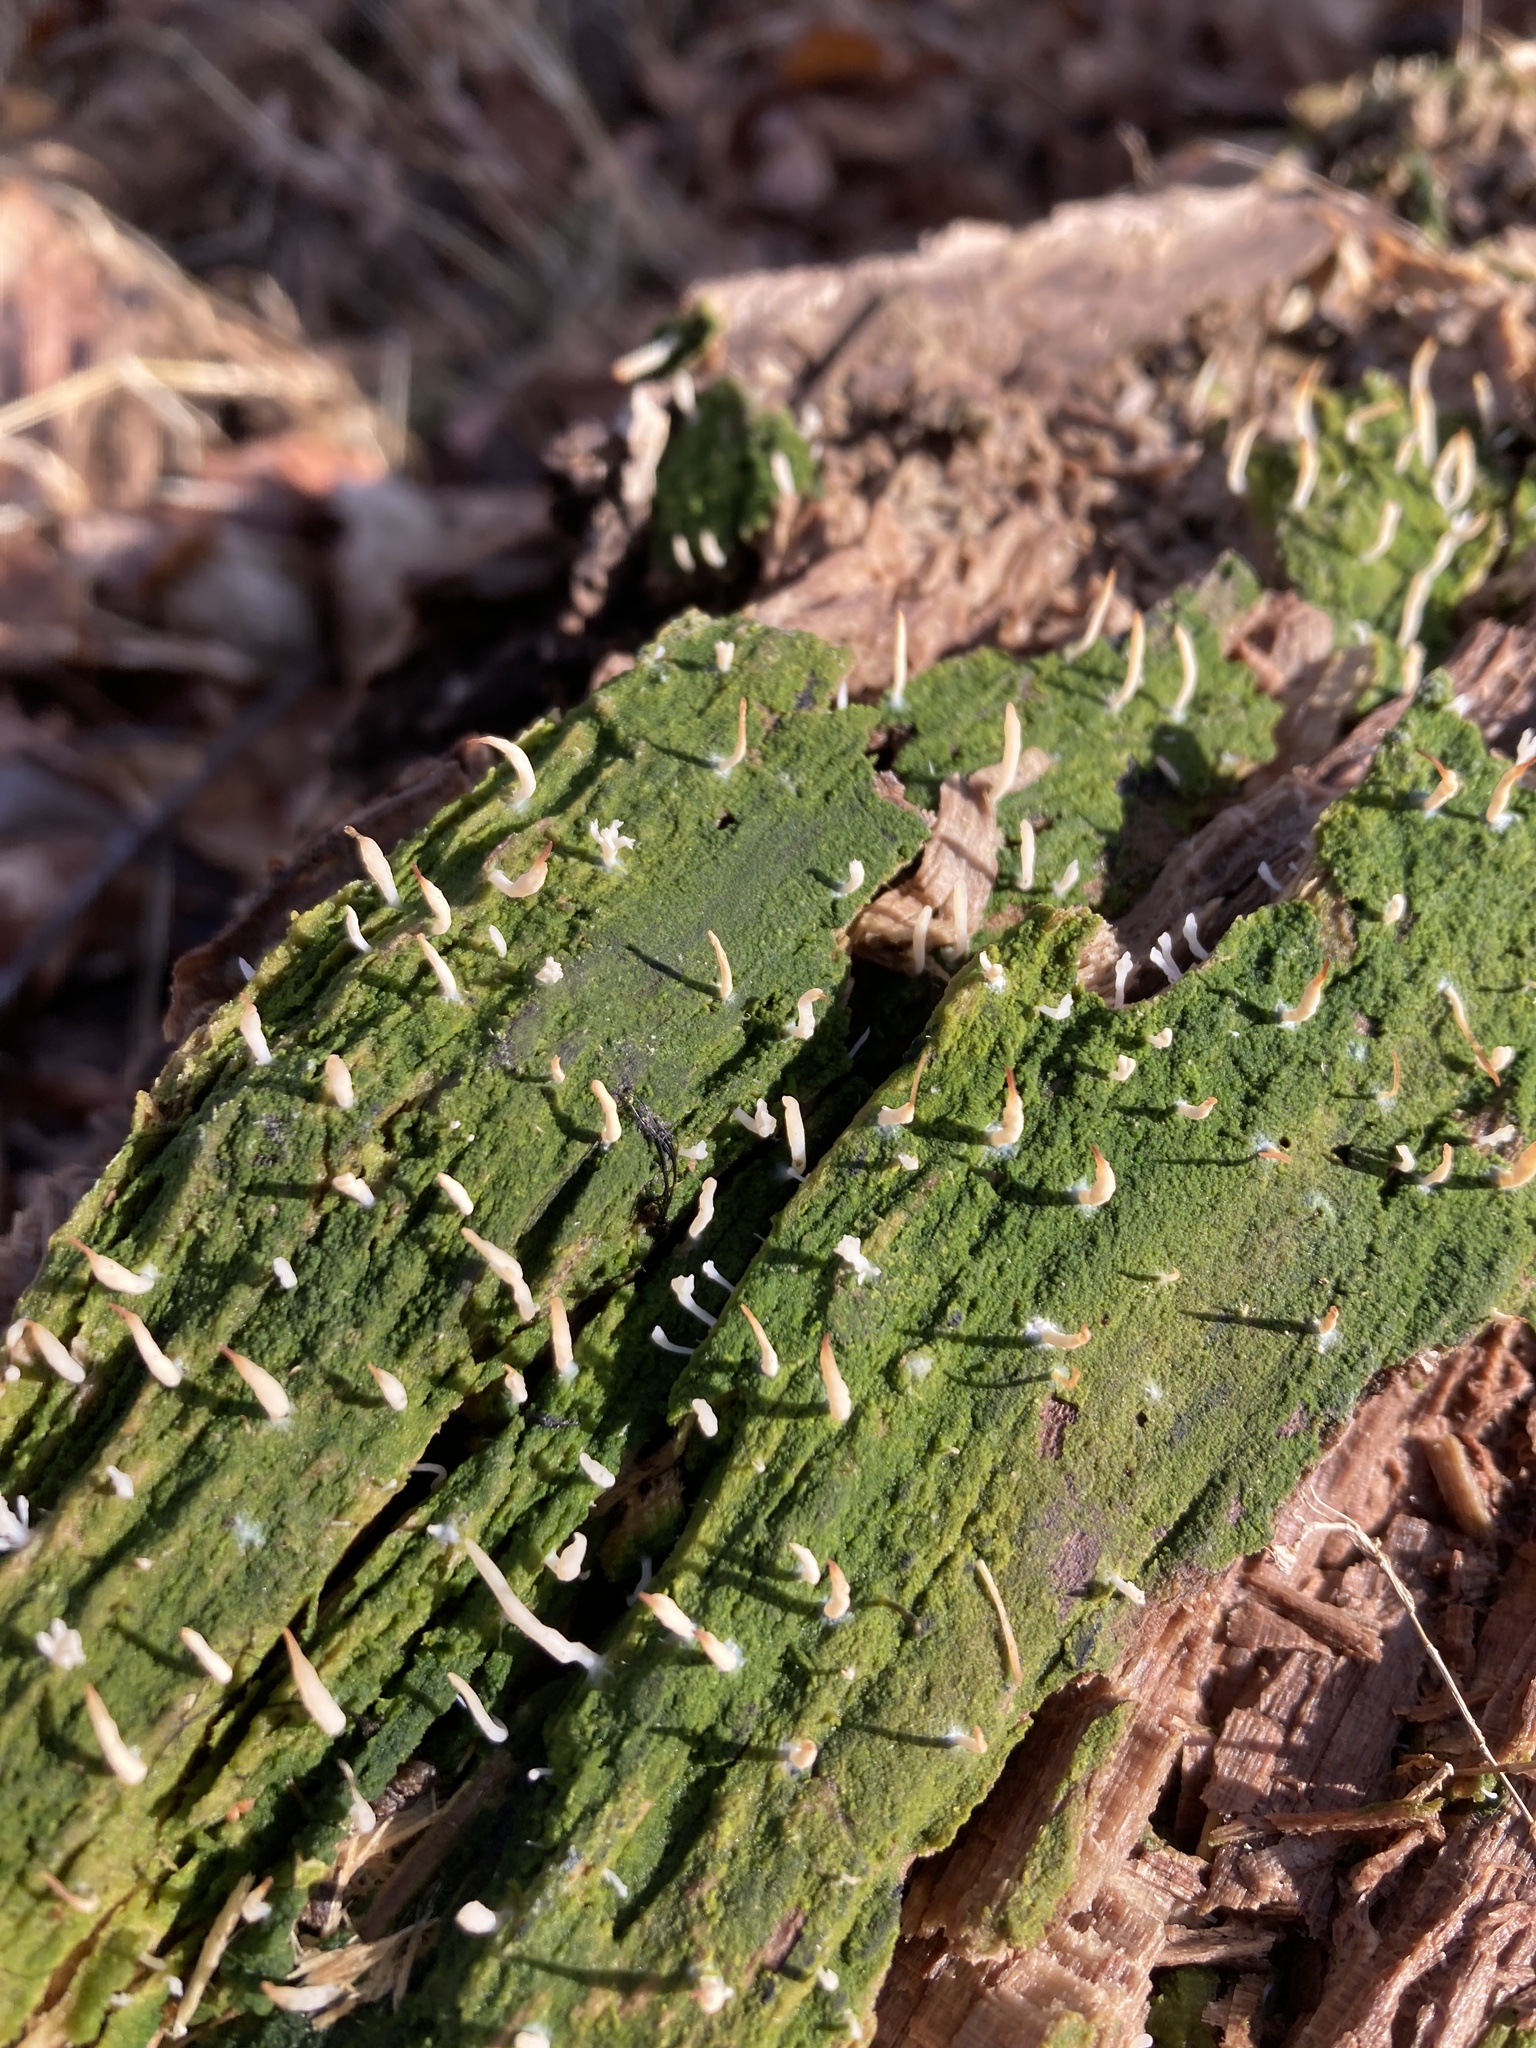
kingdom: Fungi
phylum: Basidiomycota
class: Agaricomycetes
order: Cantharellales
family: Hydnaceae
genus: Multiclavula
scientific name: Multiclavula mucida
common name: White green-algae coral
